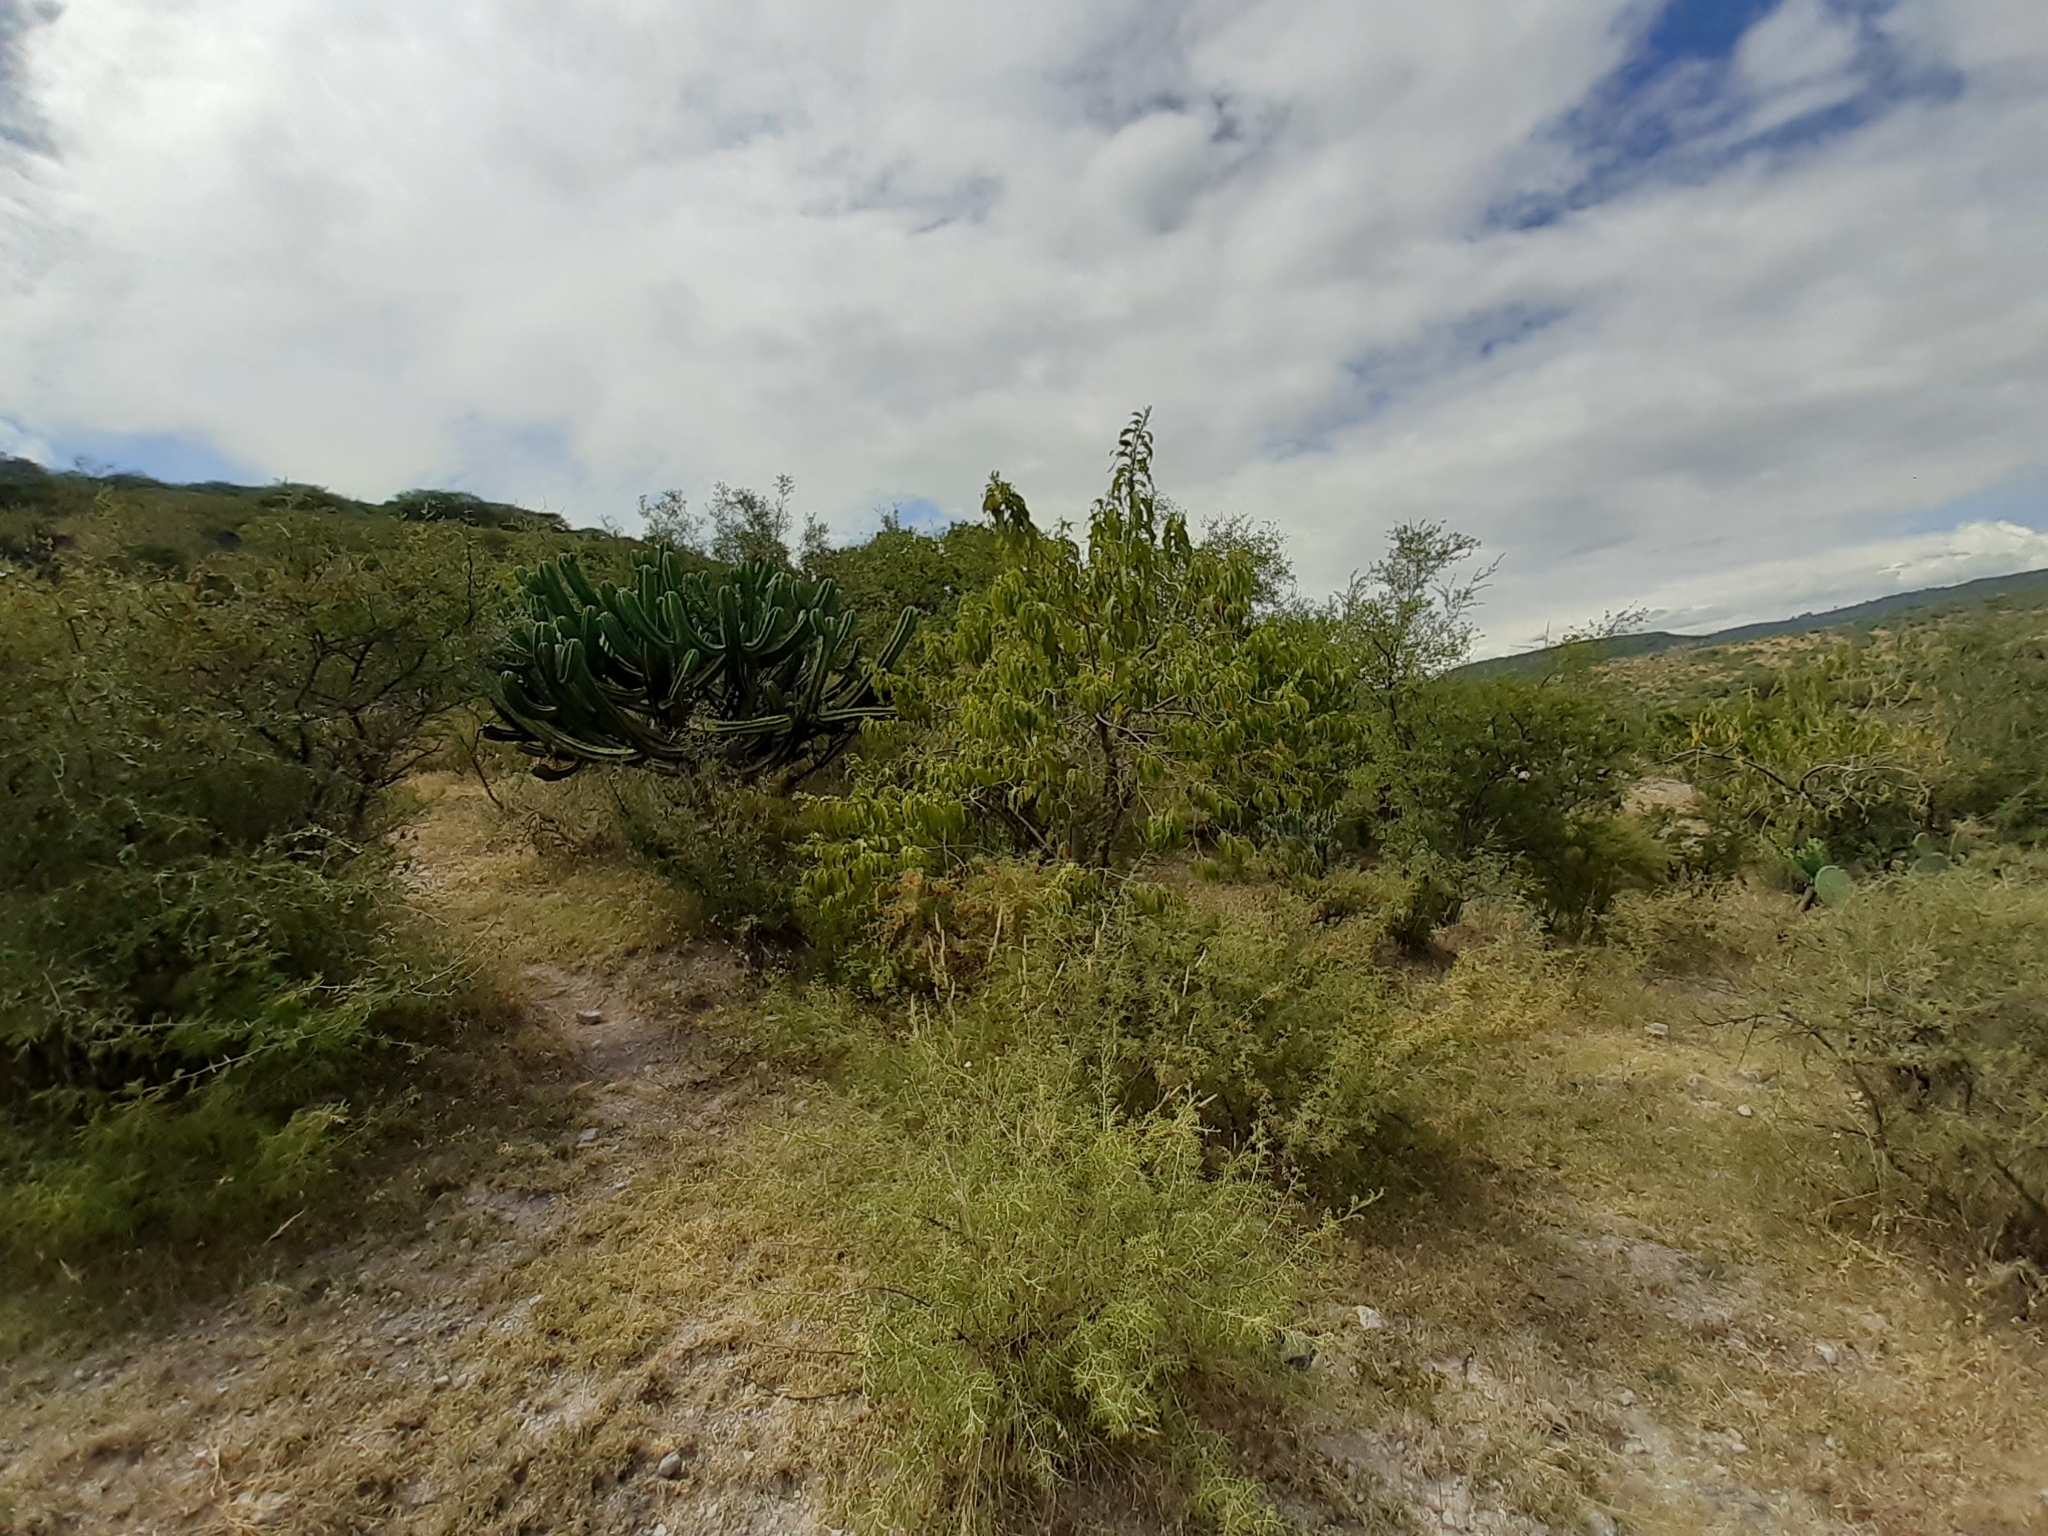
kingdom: Plantae
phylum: Tracheophyta
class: Magnoliopsida
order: Fabales
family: Fabaceae
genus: Mimosa
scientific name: Mimosa aculeaticarpa
